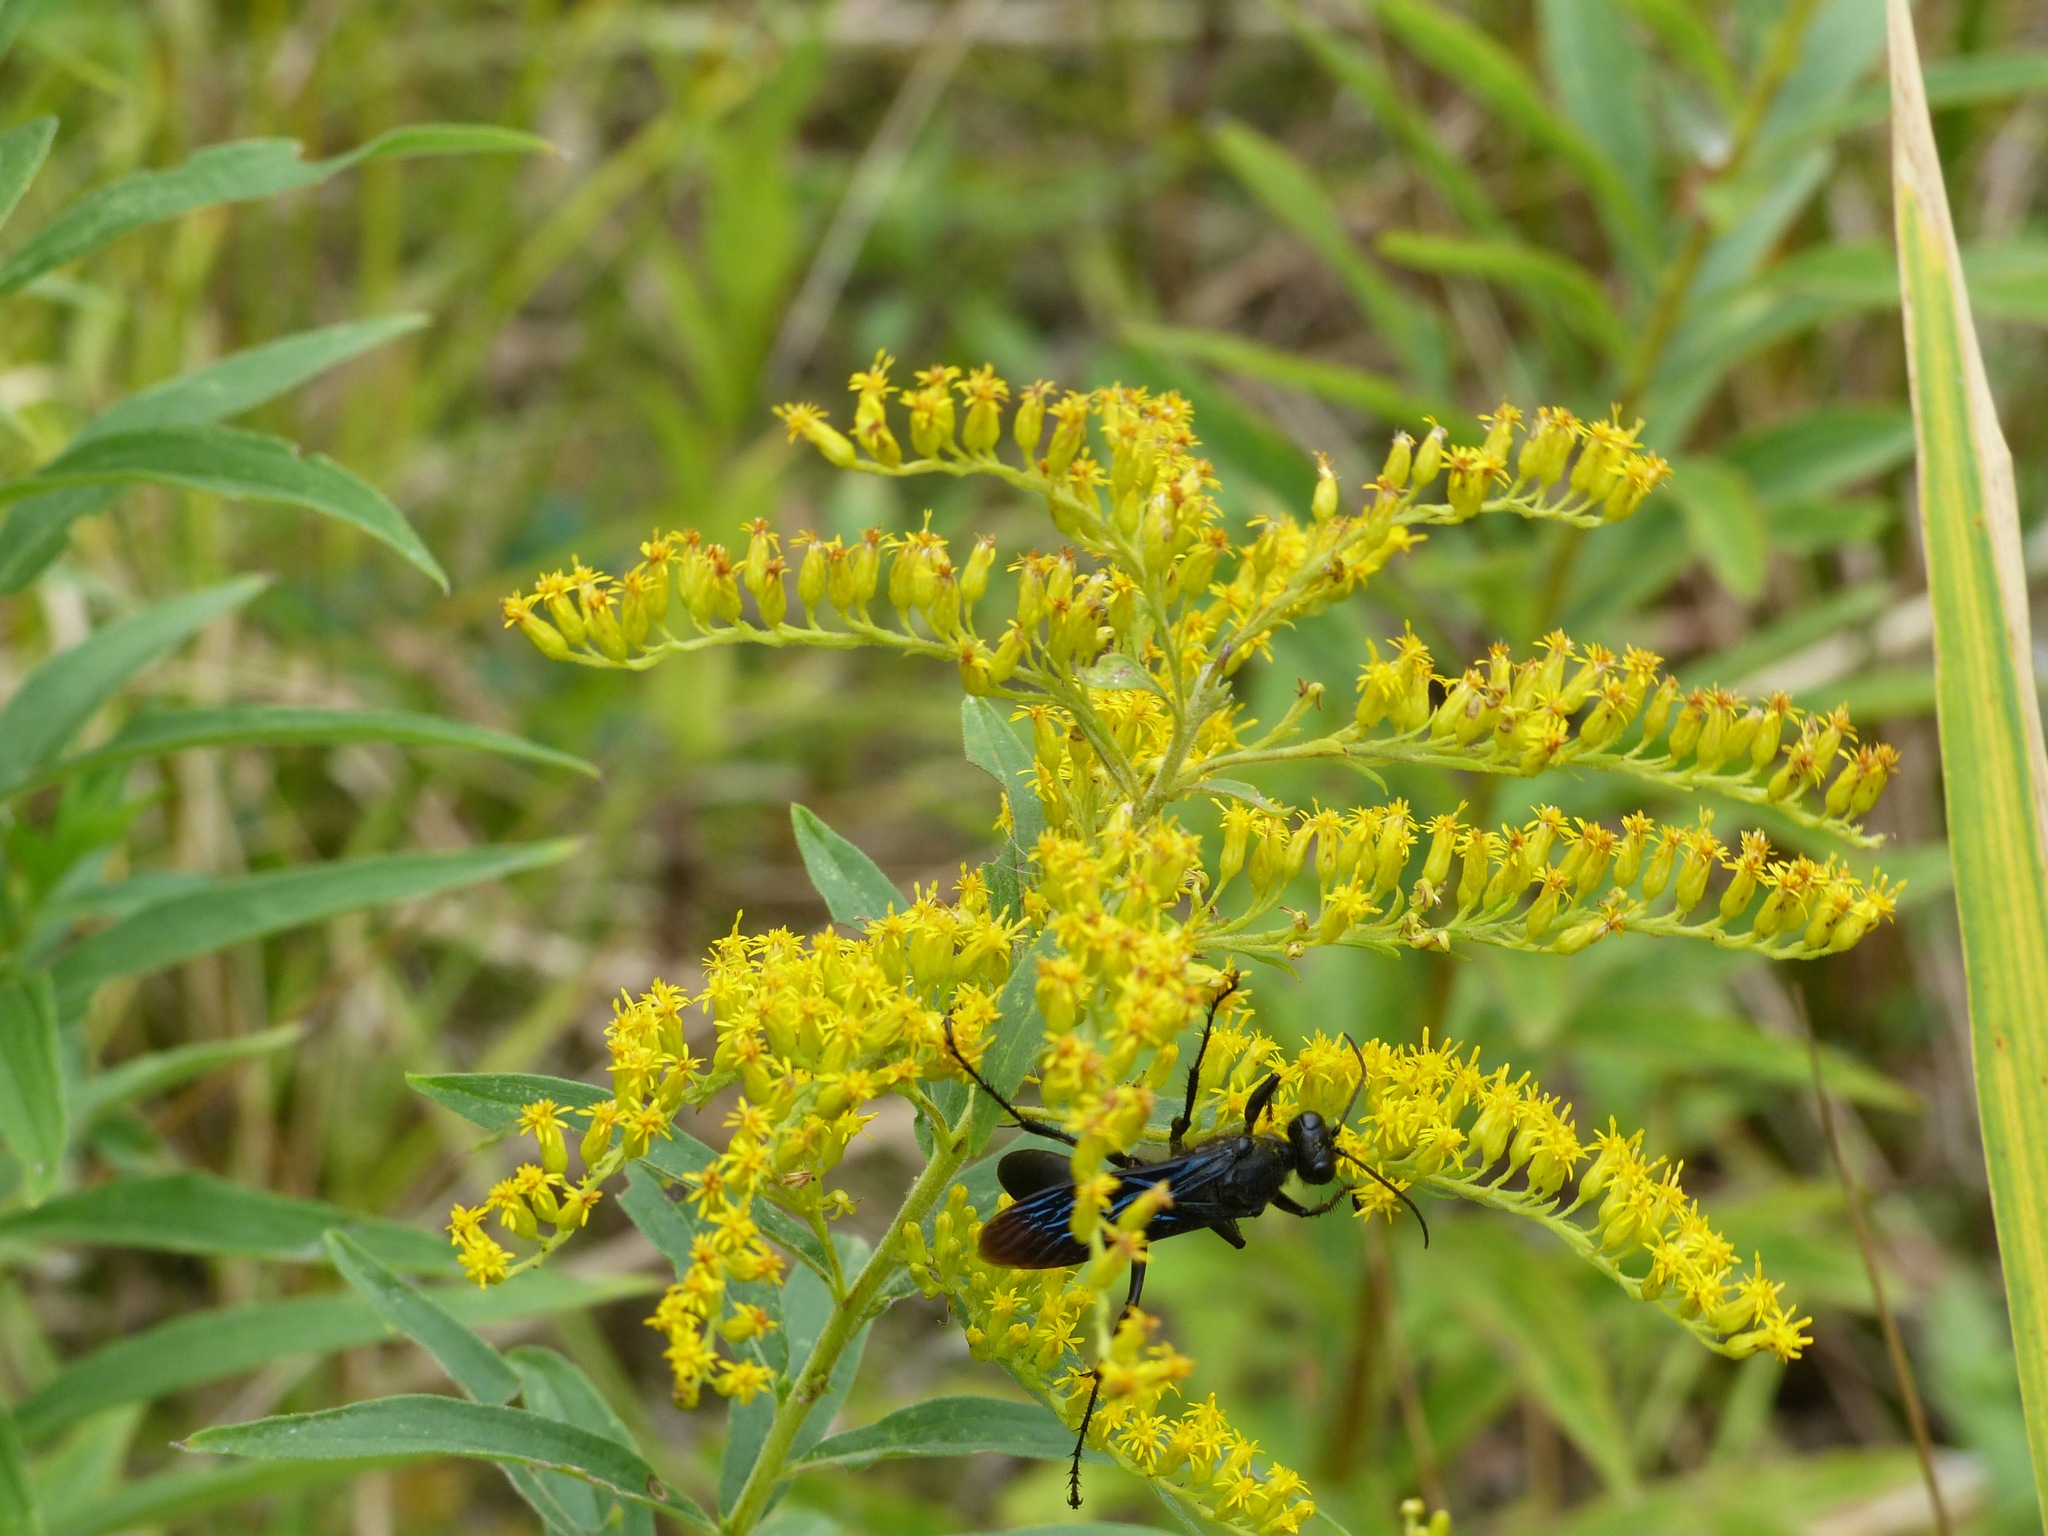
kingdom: Animalia
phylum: Arthropoda
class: Insecta
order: Hymenoptera
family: Sphecidae
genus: Sphex
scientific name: Sphex pensylvanicus
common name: Great black digger wasp
